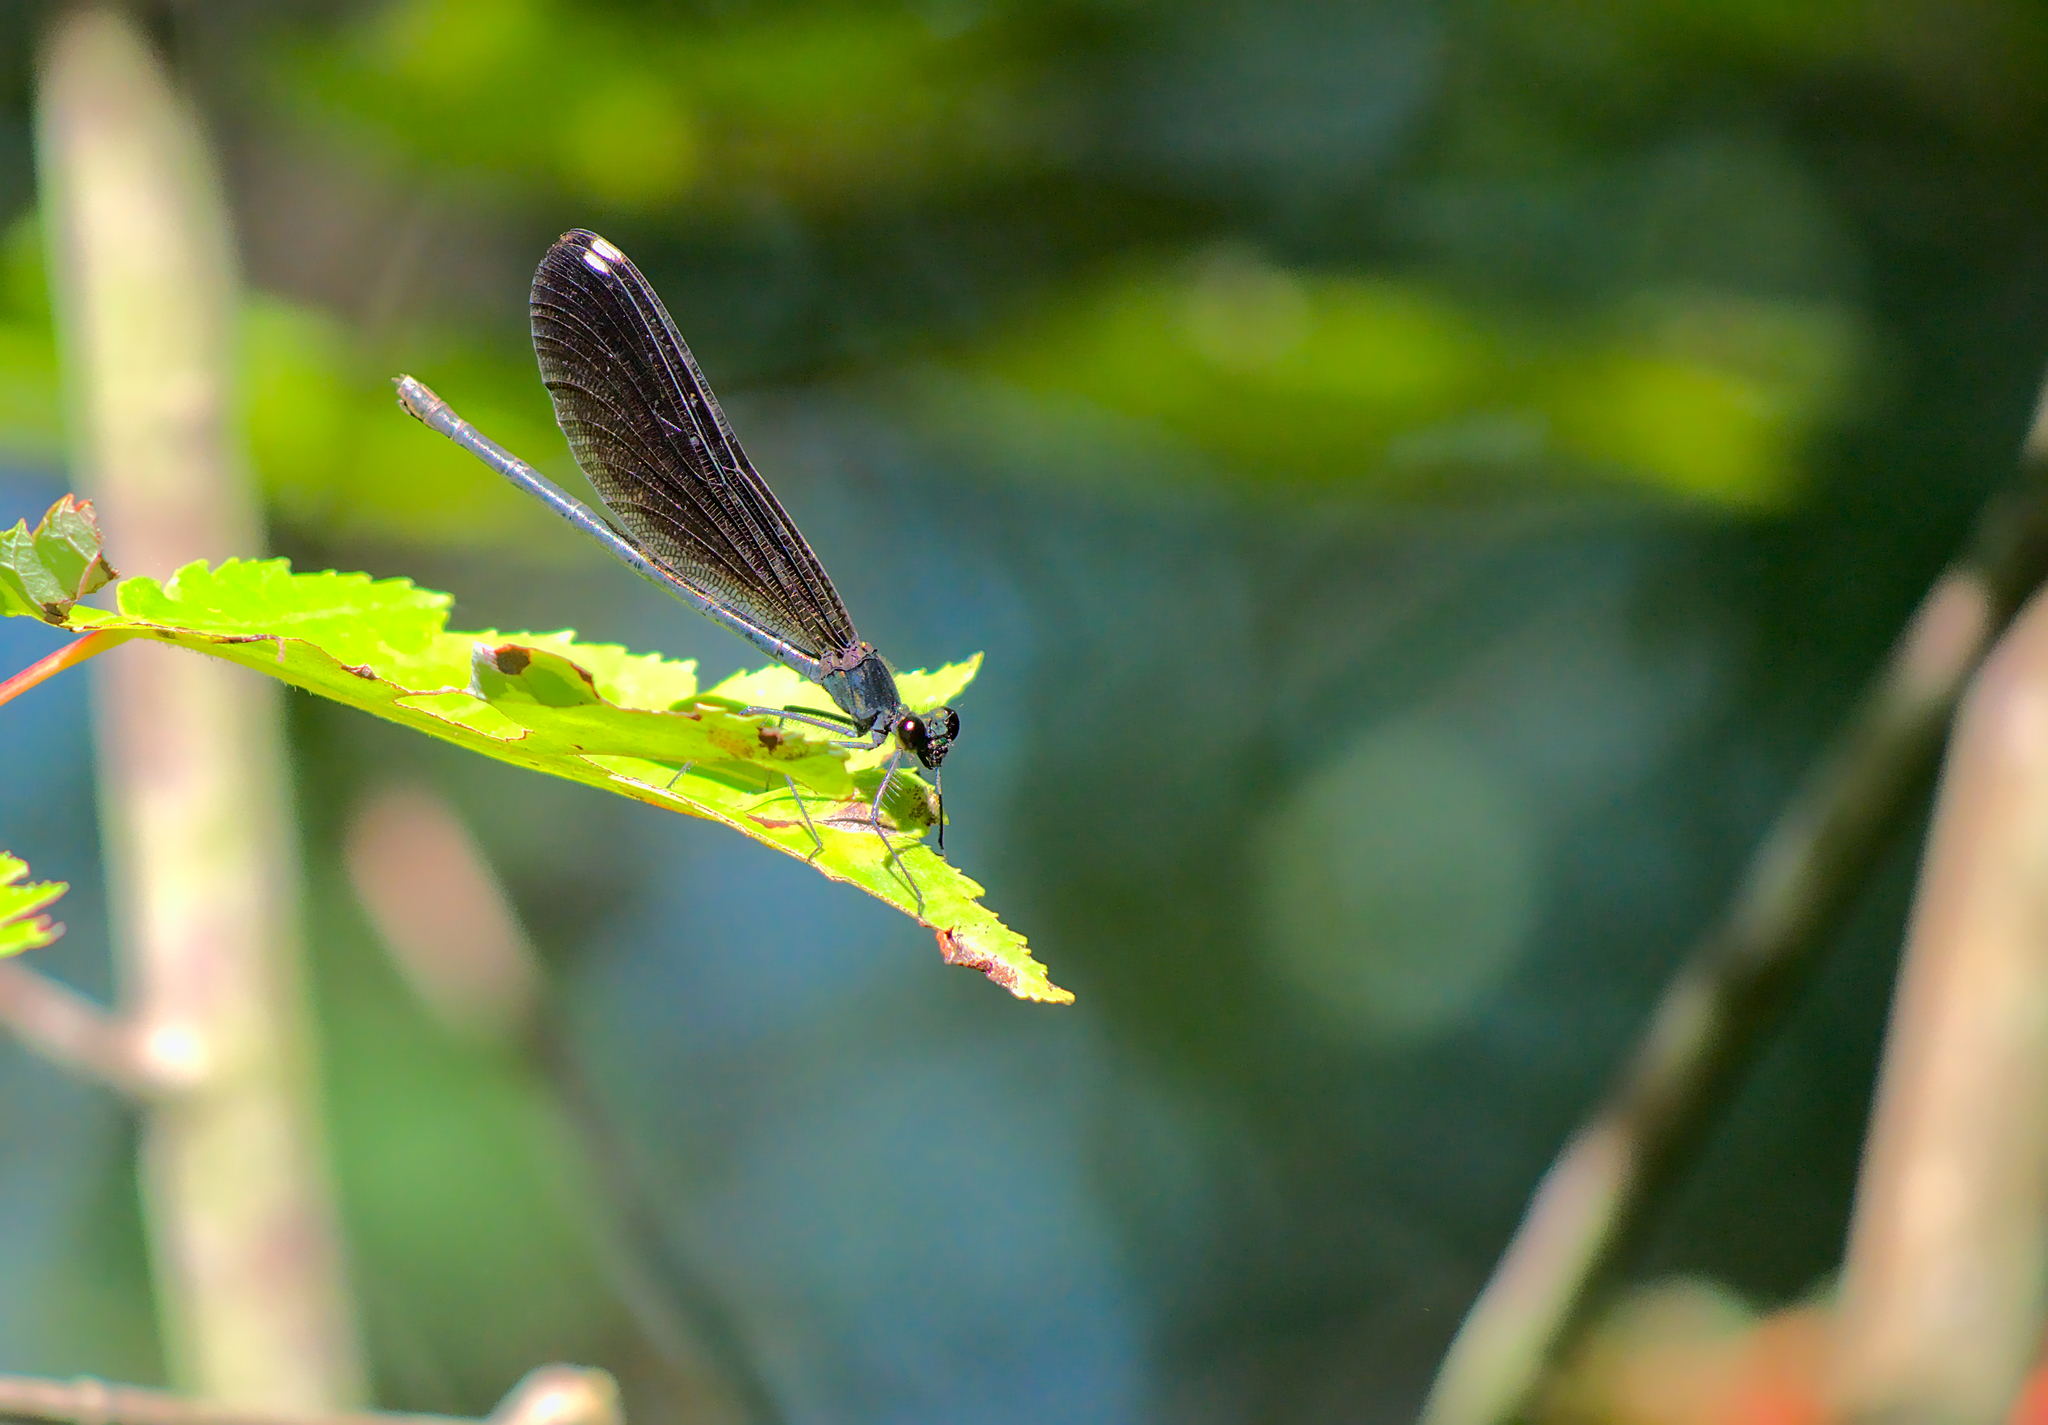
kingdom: Animalia
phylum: Arthropoda
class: Insecta
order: Odonata
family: Calopterygidae
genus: Calopteryx
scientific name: Calopteryx maculata
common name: Ebony jewelwing
